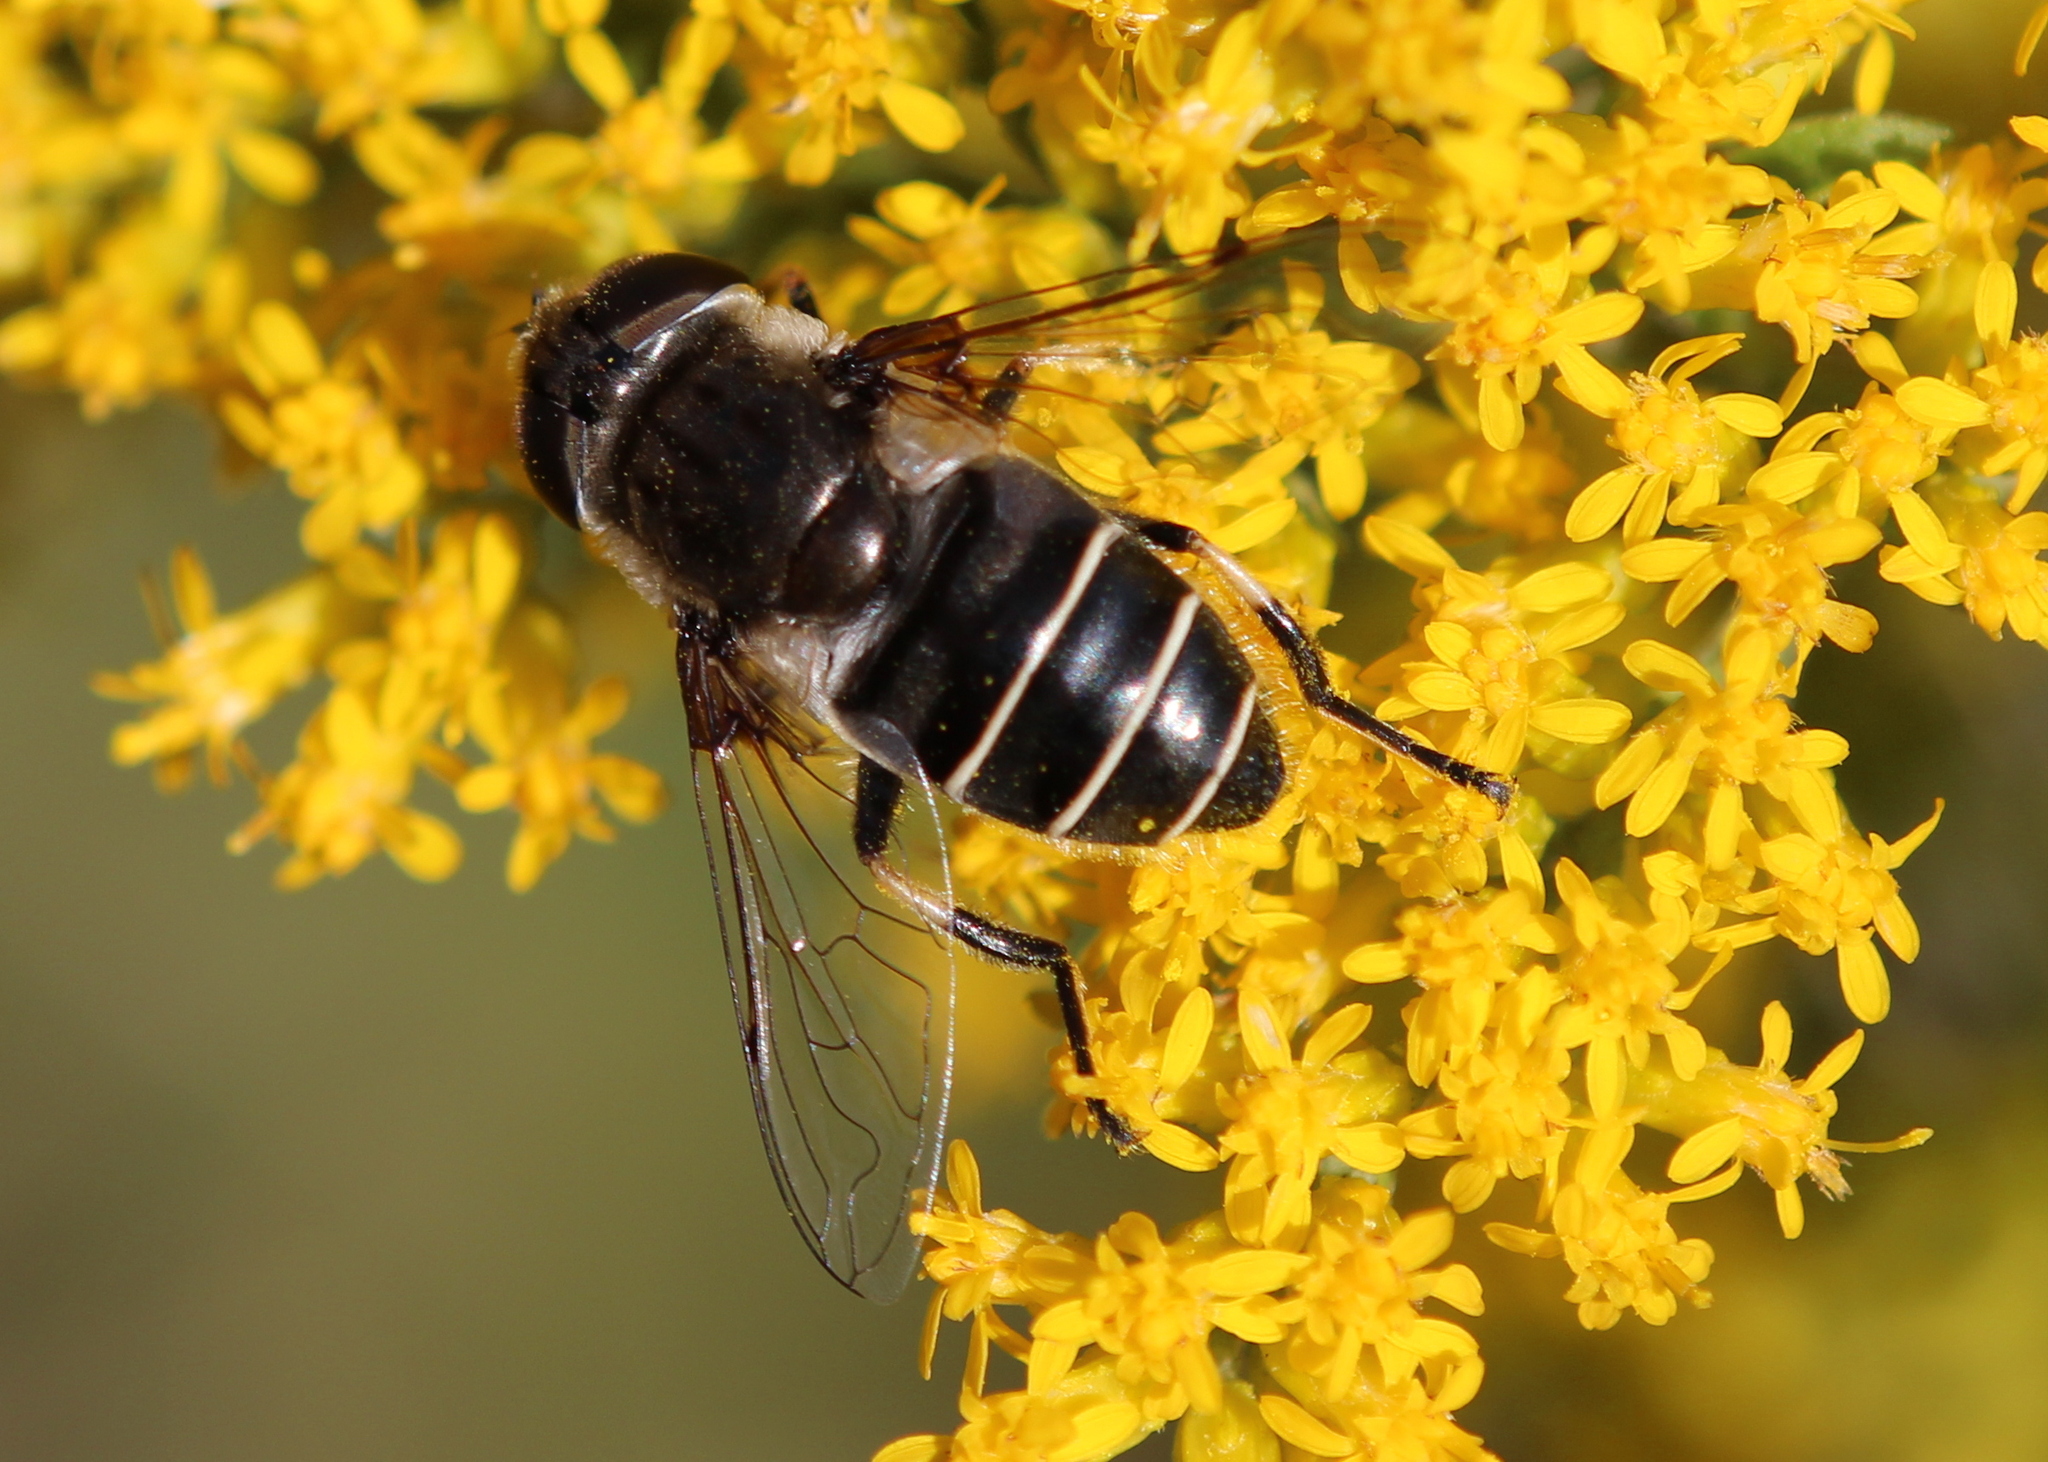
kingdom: Animalia
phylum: Arthropoda
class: Insecta
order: Diptera
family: Syrphidae
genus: Eristalis
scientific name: Eristalis dimidiata
